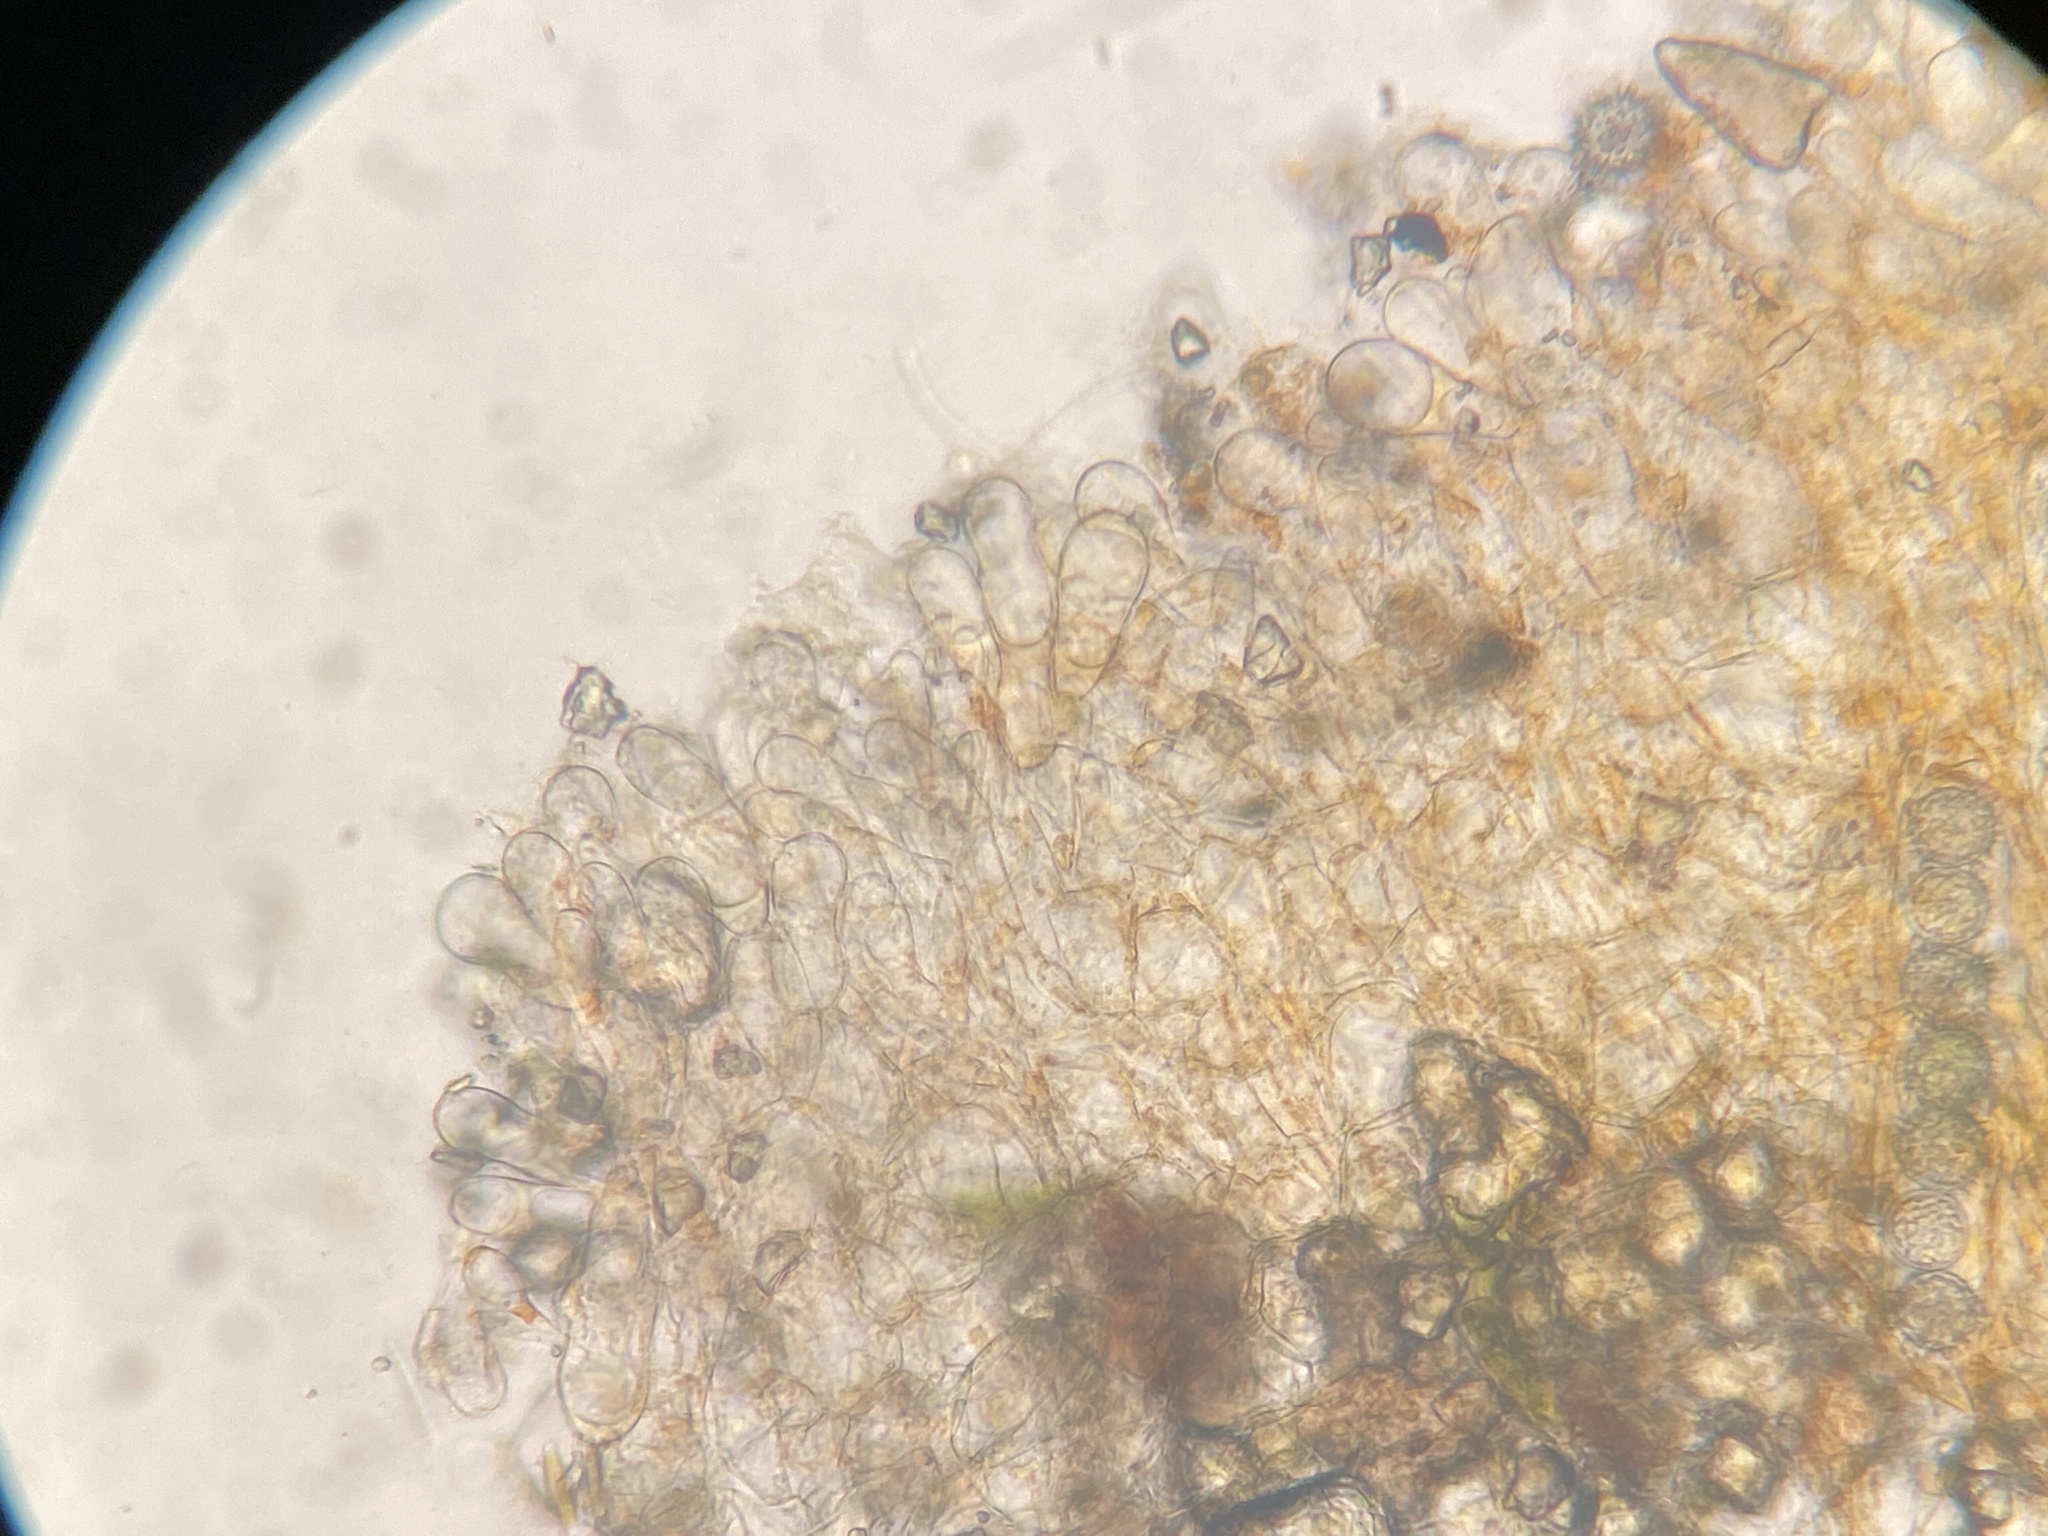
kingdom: Fungi
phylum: Ascomycota
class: Pezizomycetes
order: Pezizales
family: Pyronemataceae
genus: Lamprospora
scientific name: Lamprospora crechqueraultii
